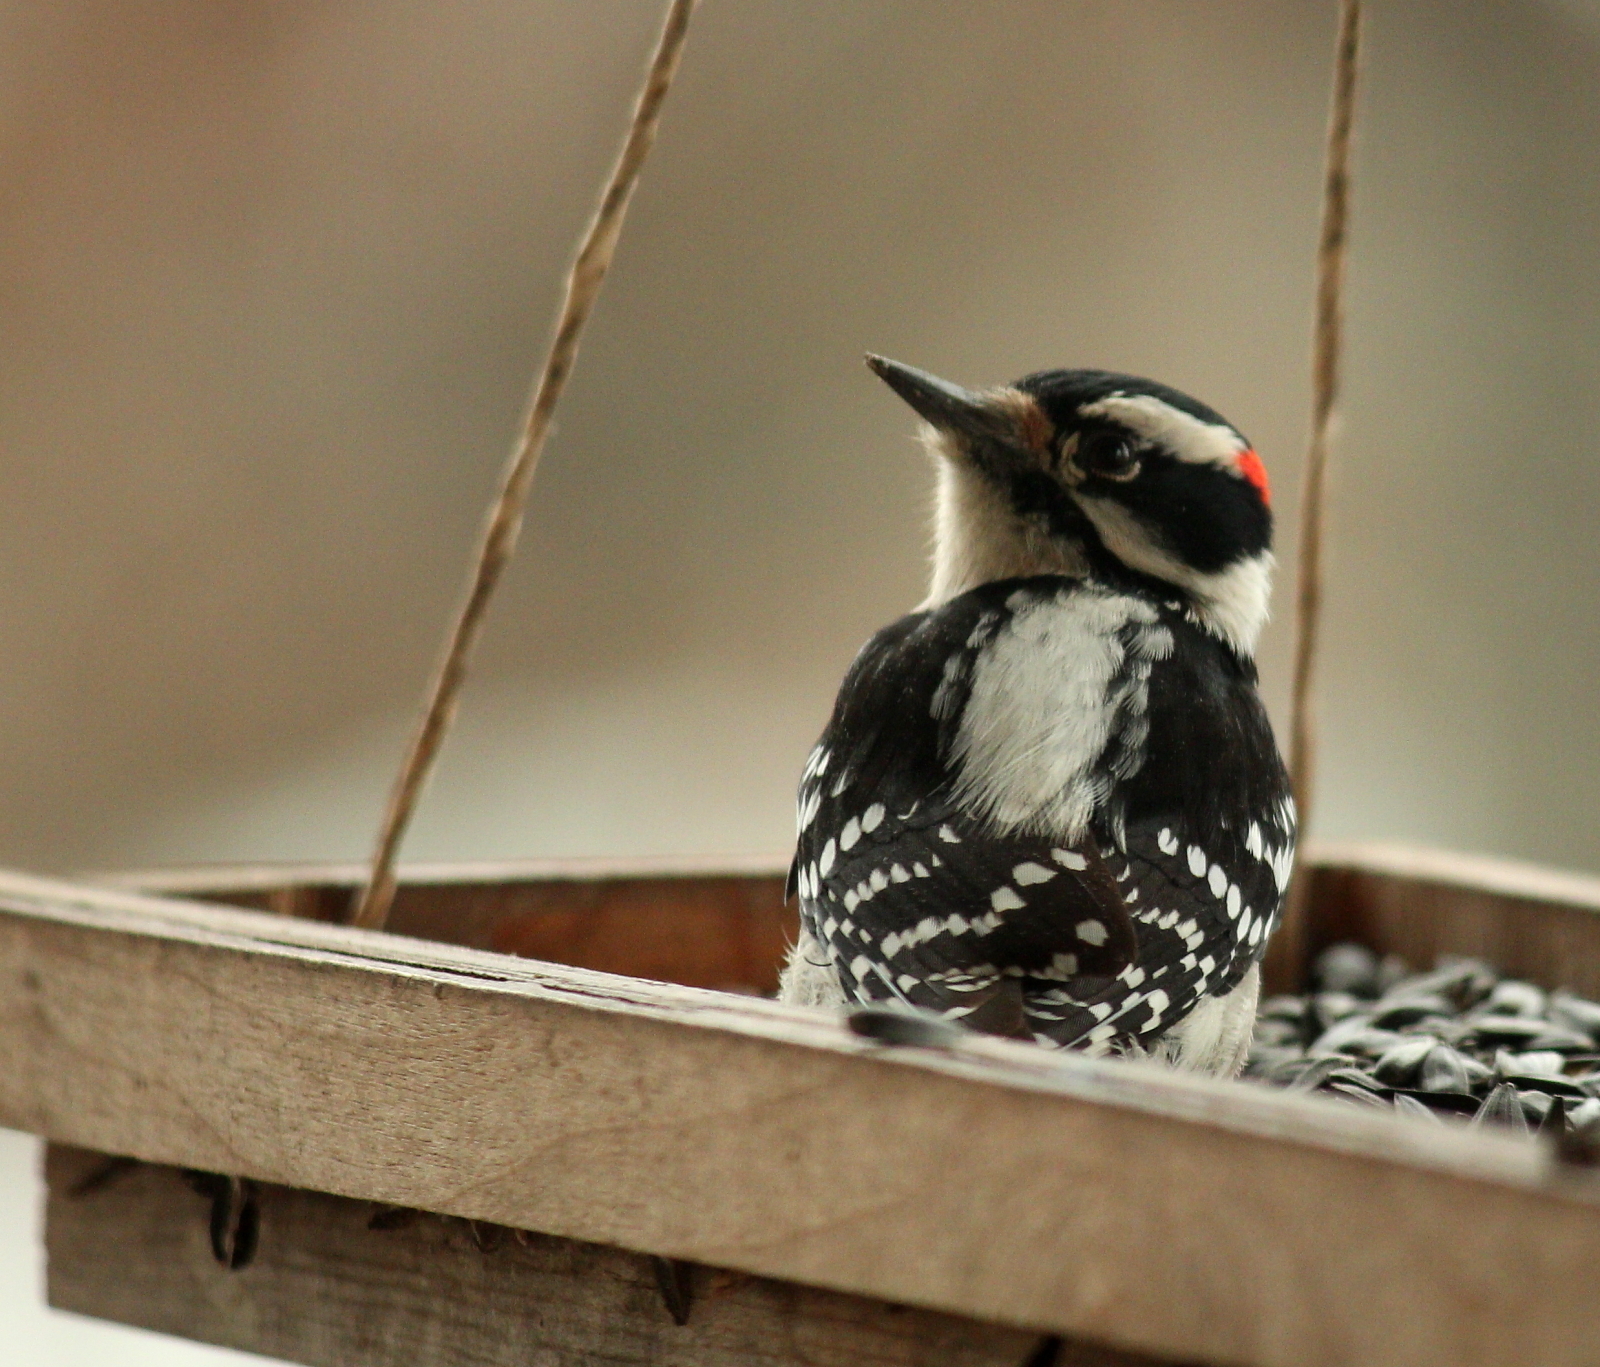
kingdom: Animalia
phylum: Chordata
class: Aves
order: Piciformes
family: Picidae
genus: Dryobates
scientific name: Dryobates pubescens
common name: Downy woodpecker
